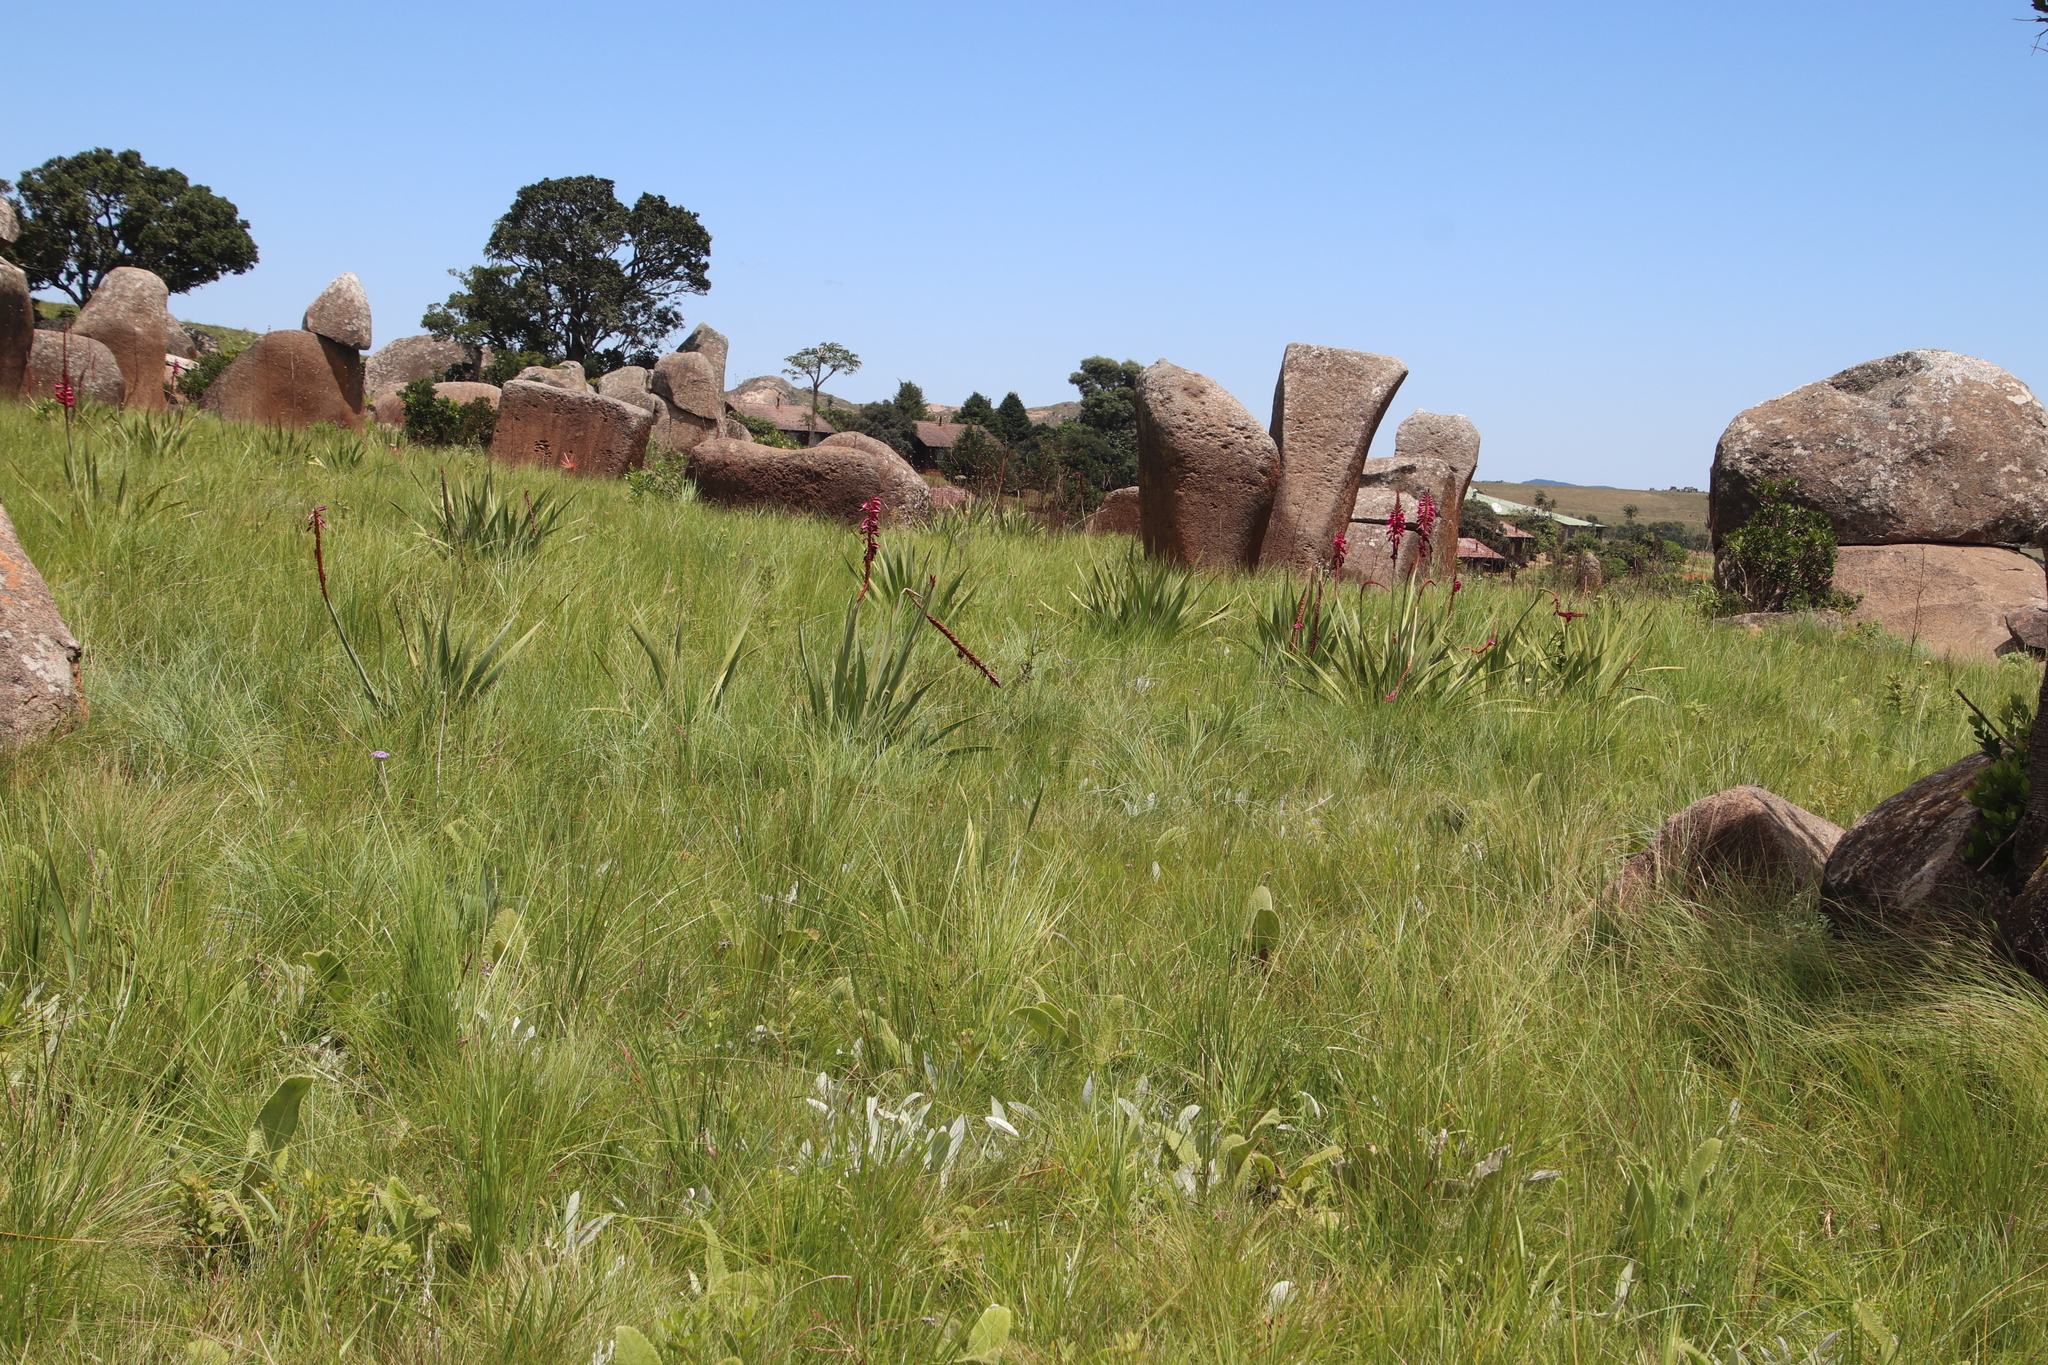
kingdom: Plantae
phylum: Tracheophyta
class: Liliopsida
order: Asparagales
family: Iridaceae
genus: Watsonia
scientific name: Watsonia pulchra
